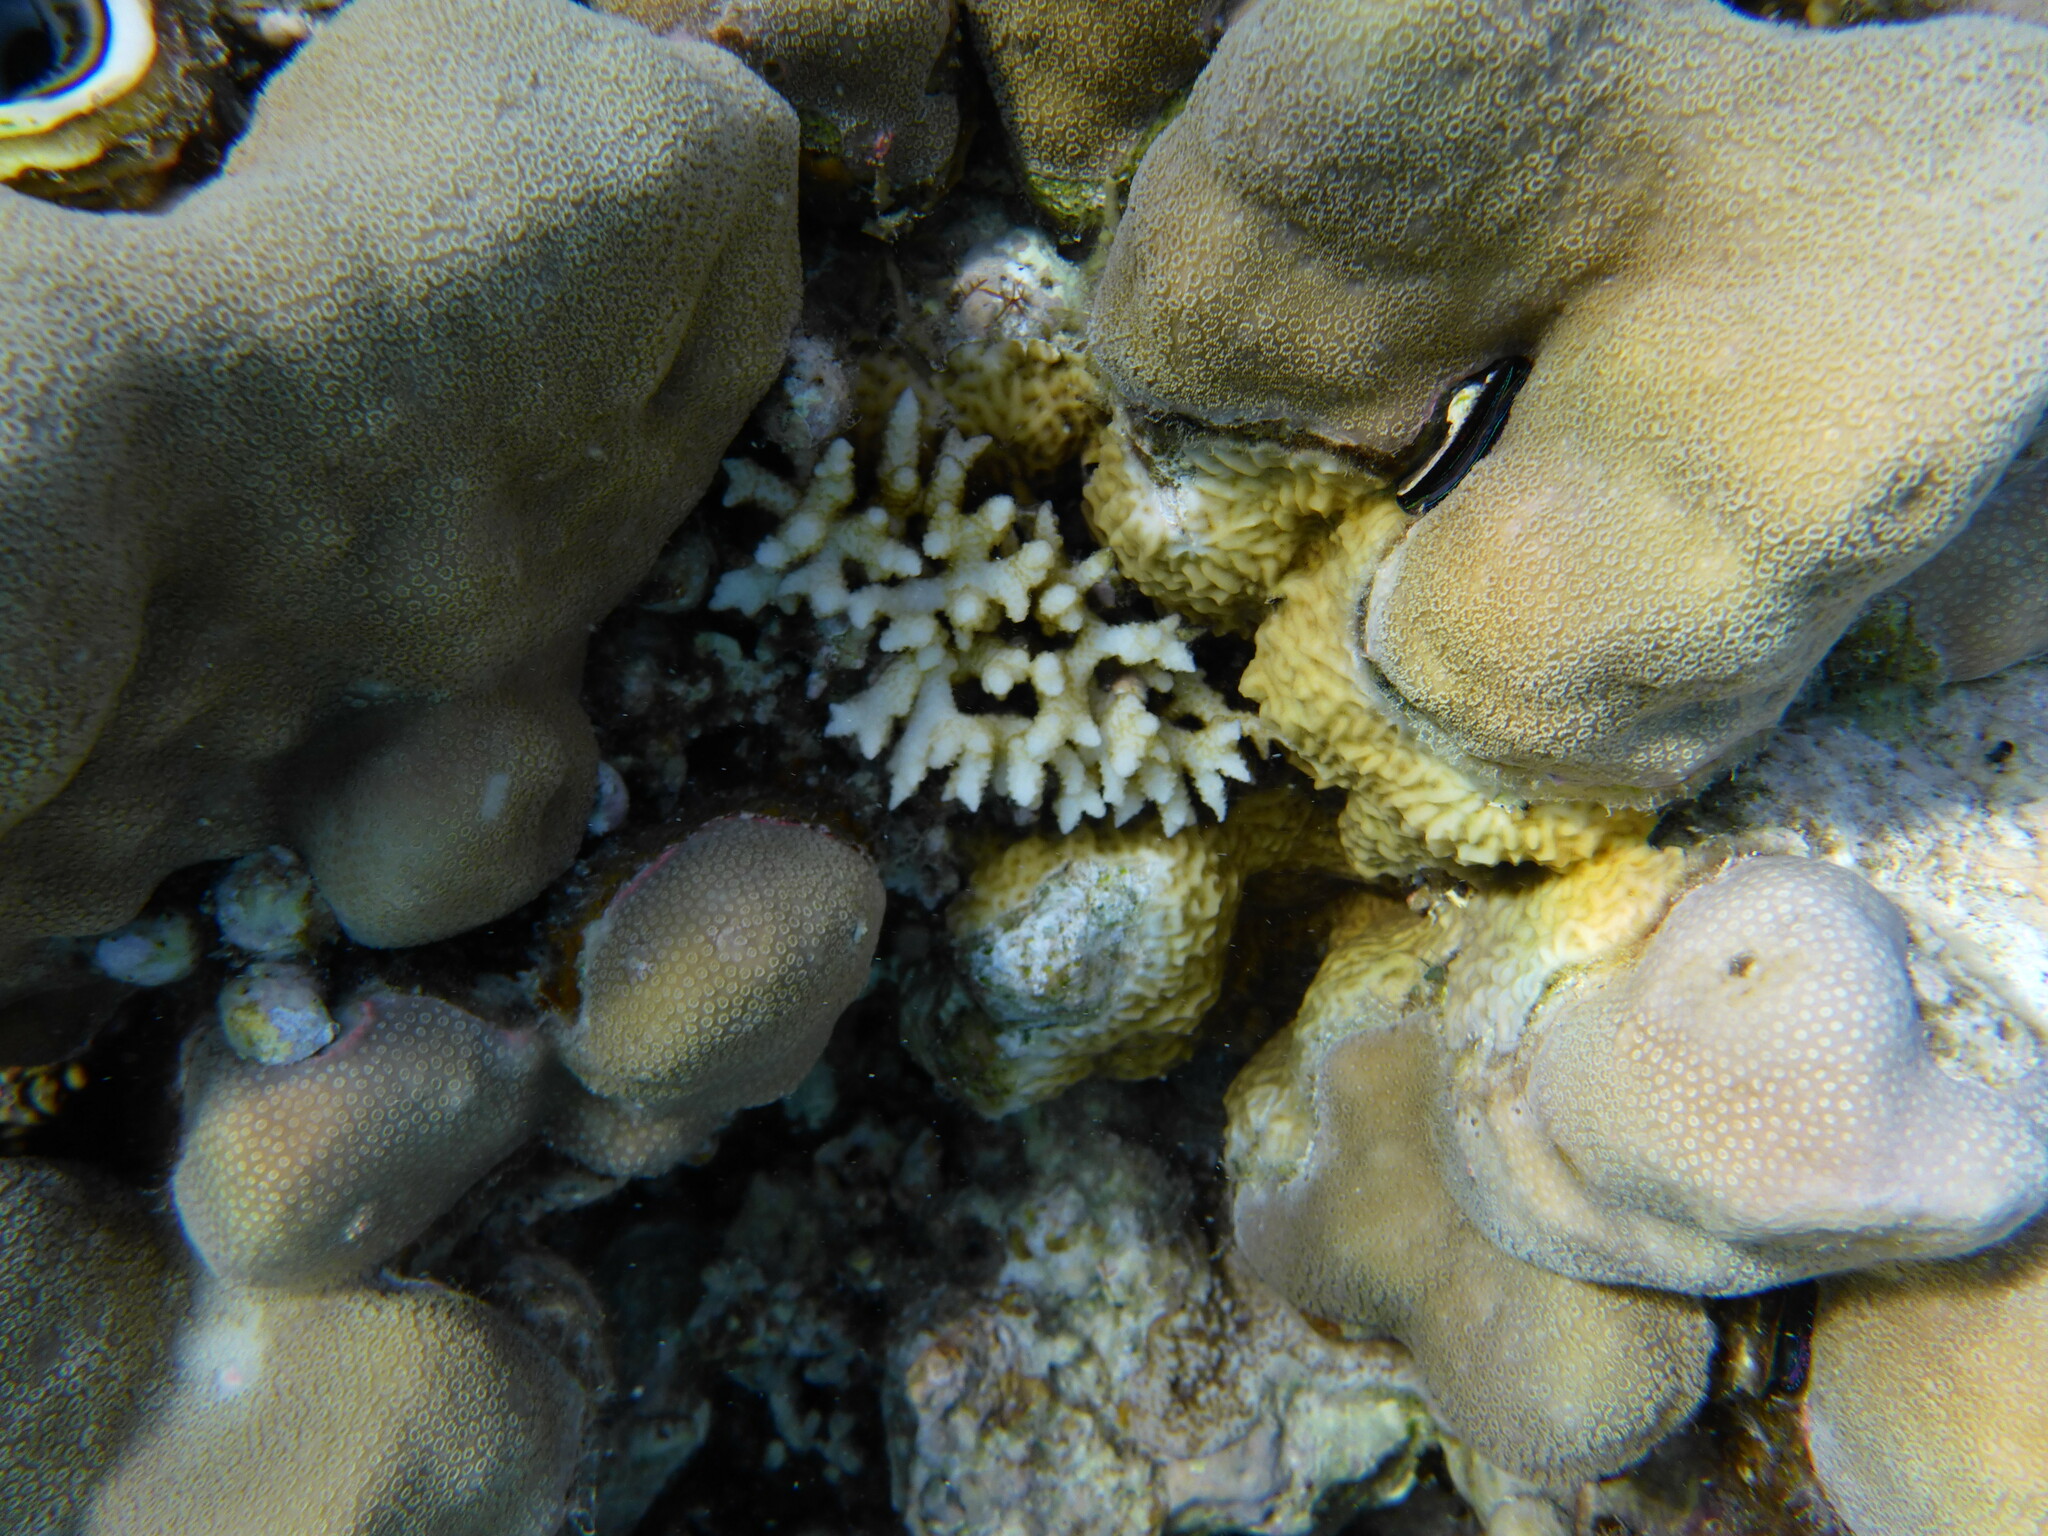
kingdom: Animalia
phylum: Cnidaria
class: Anthozoa
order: Scleractinia
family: Pocilloporidae
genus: Seriatopora
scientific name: Seriatopora hystrix
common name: Bush coral
